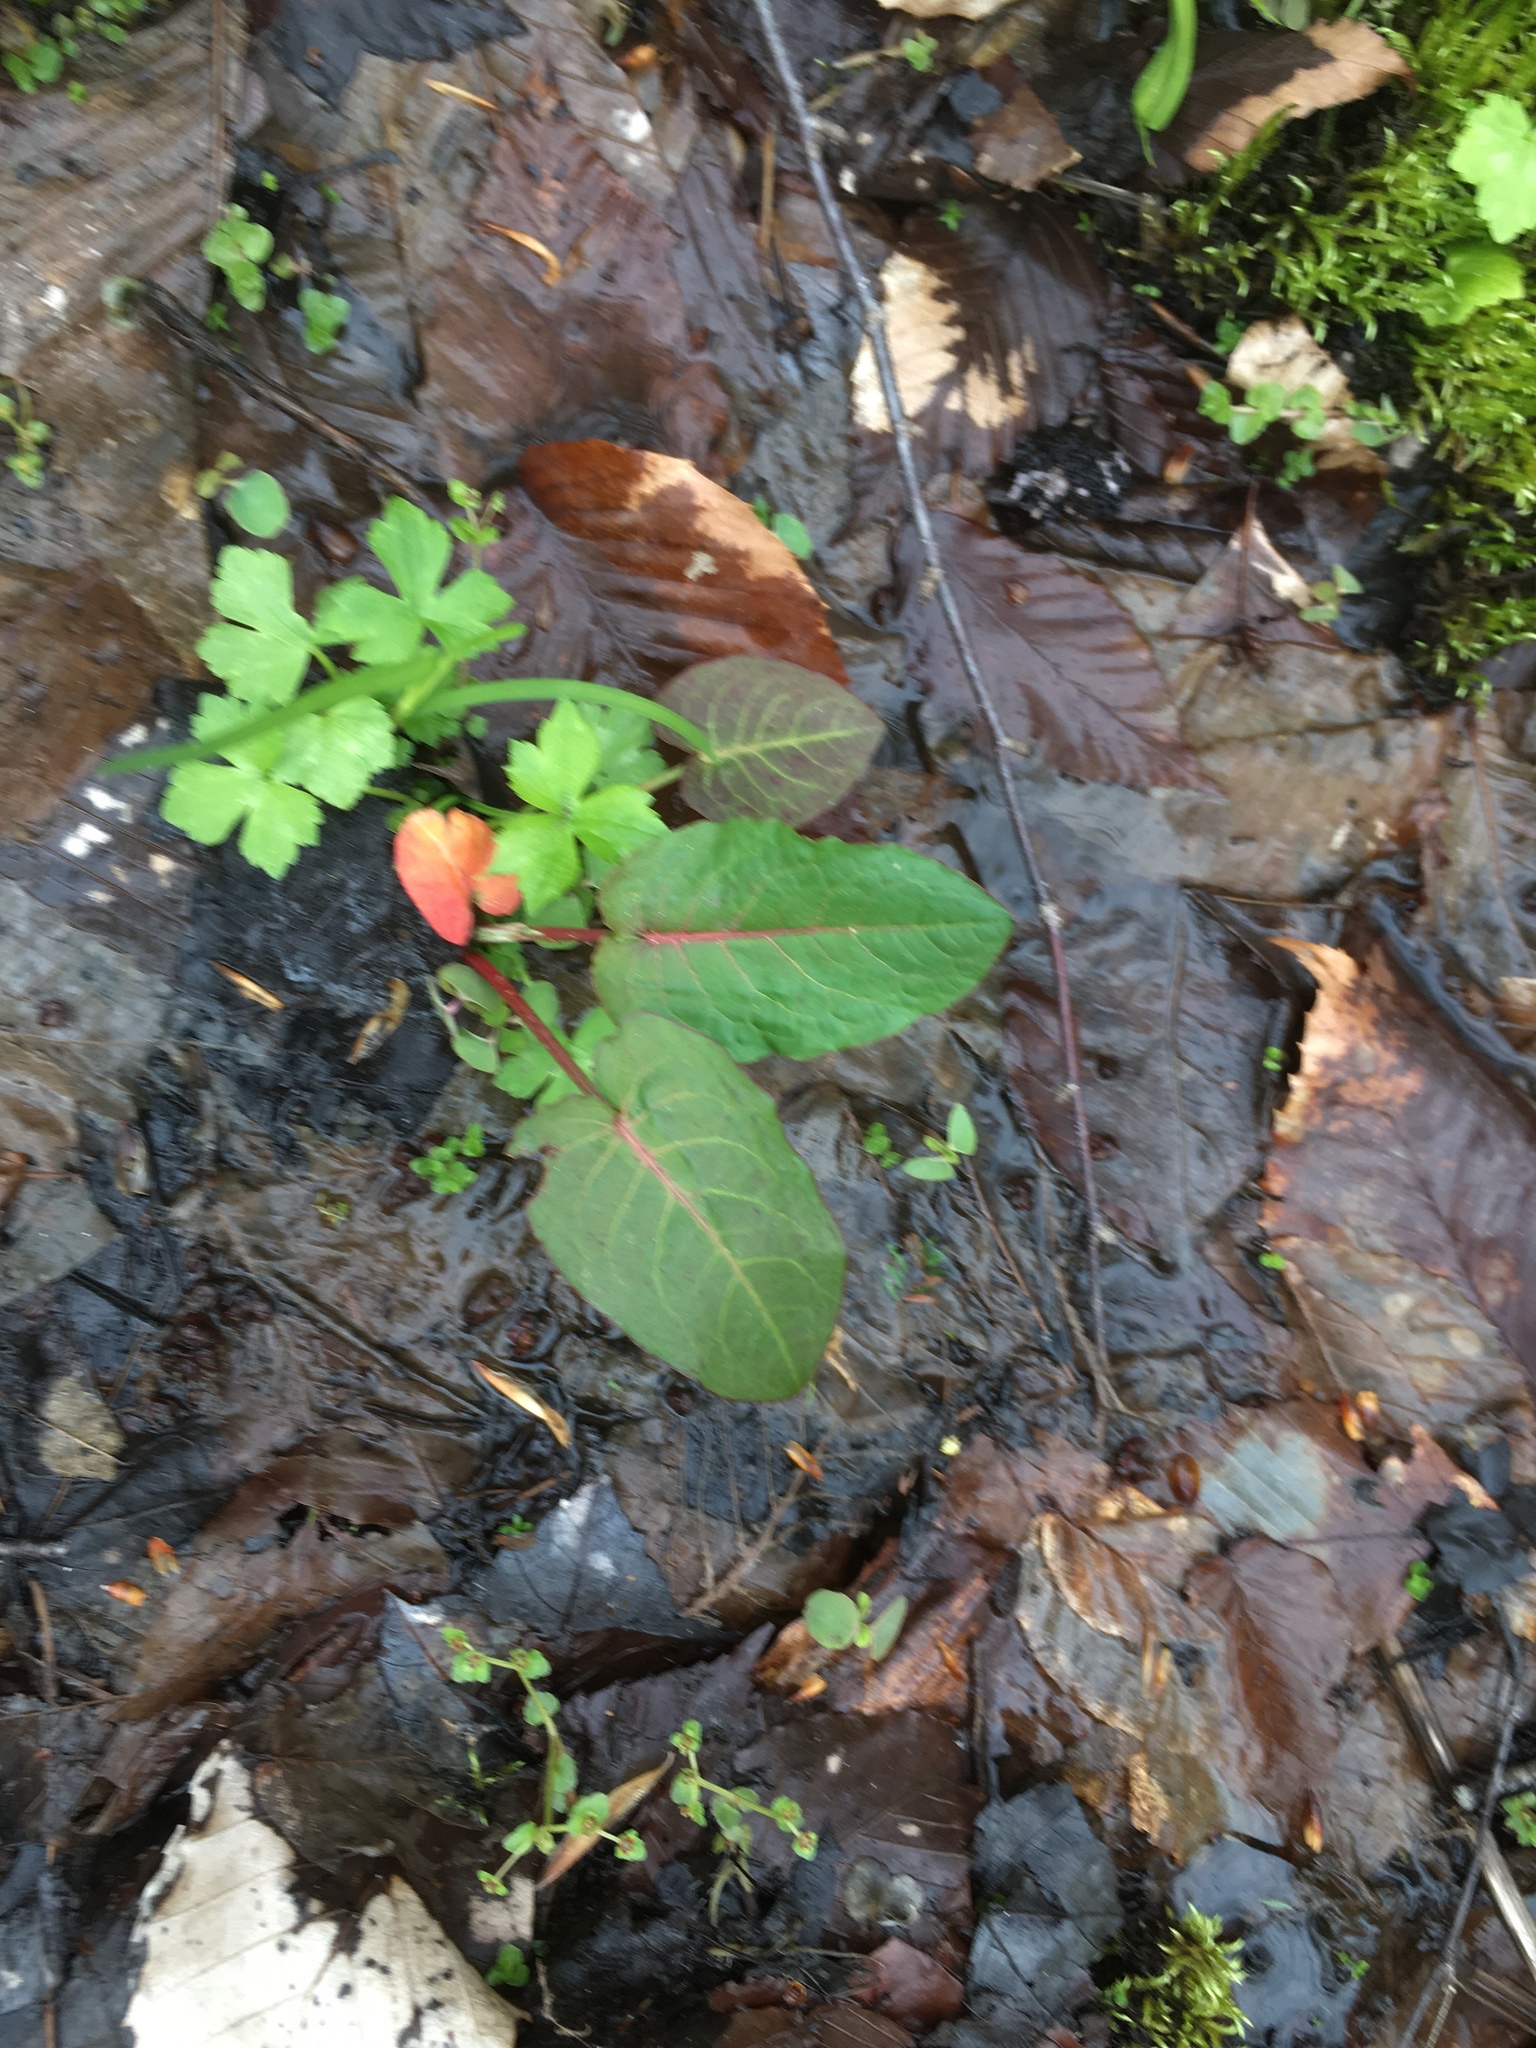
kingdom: Plantae
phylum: Tracheophyta
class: Magnoliopsida
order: Caryophyllales
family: Polygonaceae
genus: Rumex
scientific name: Rumex obtusifolius
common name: Bitter dock
